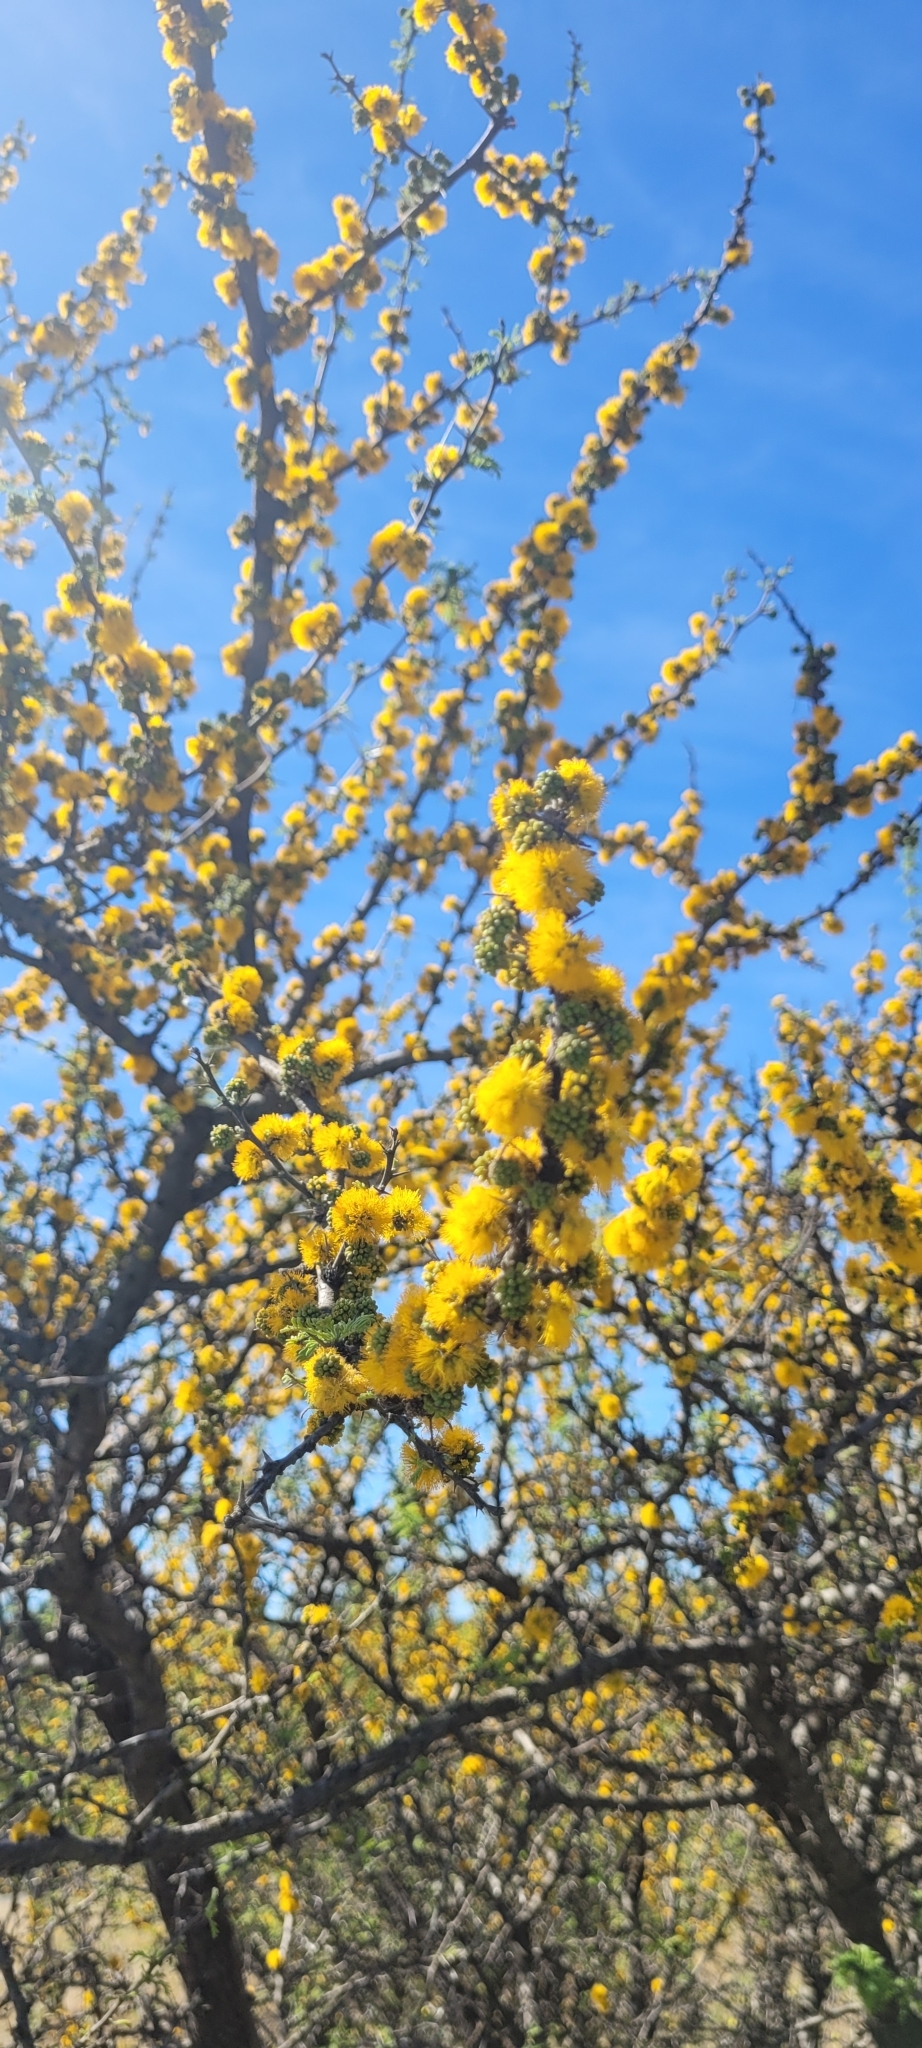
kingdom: Plantae
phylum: Tracheophyta
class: Magnoliopsida
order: Fabales
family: Fabaceae
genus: Vachellia
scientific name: Vachellia caven
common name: Roman cassie
